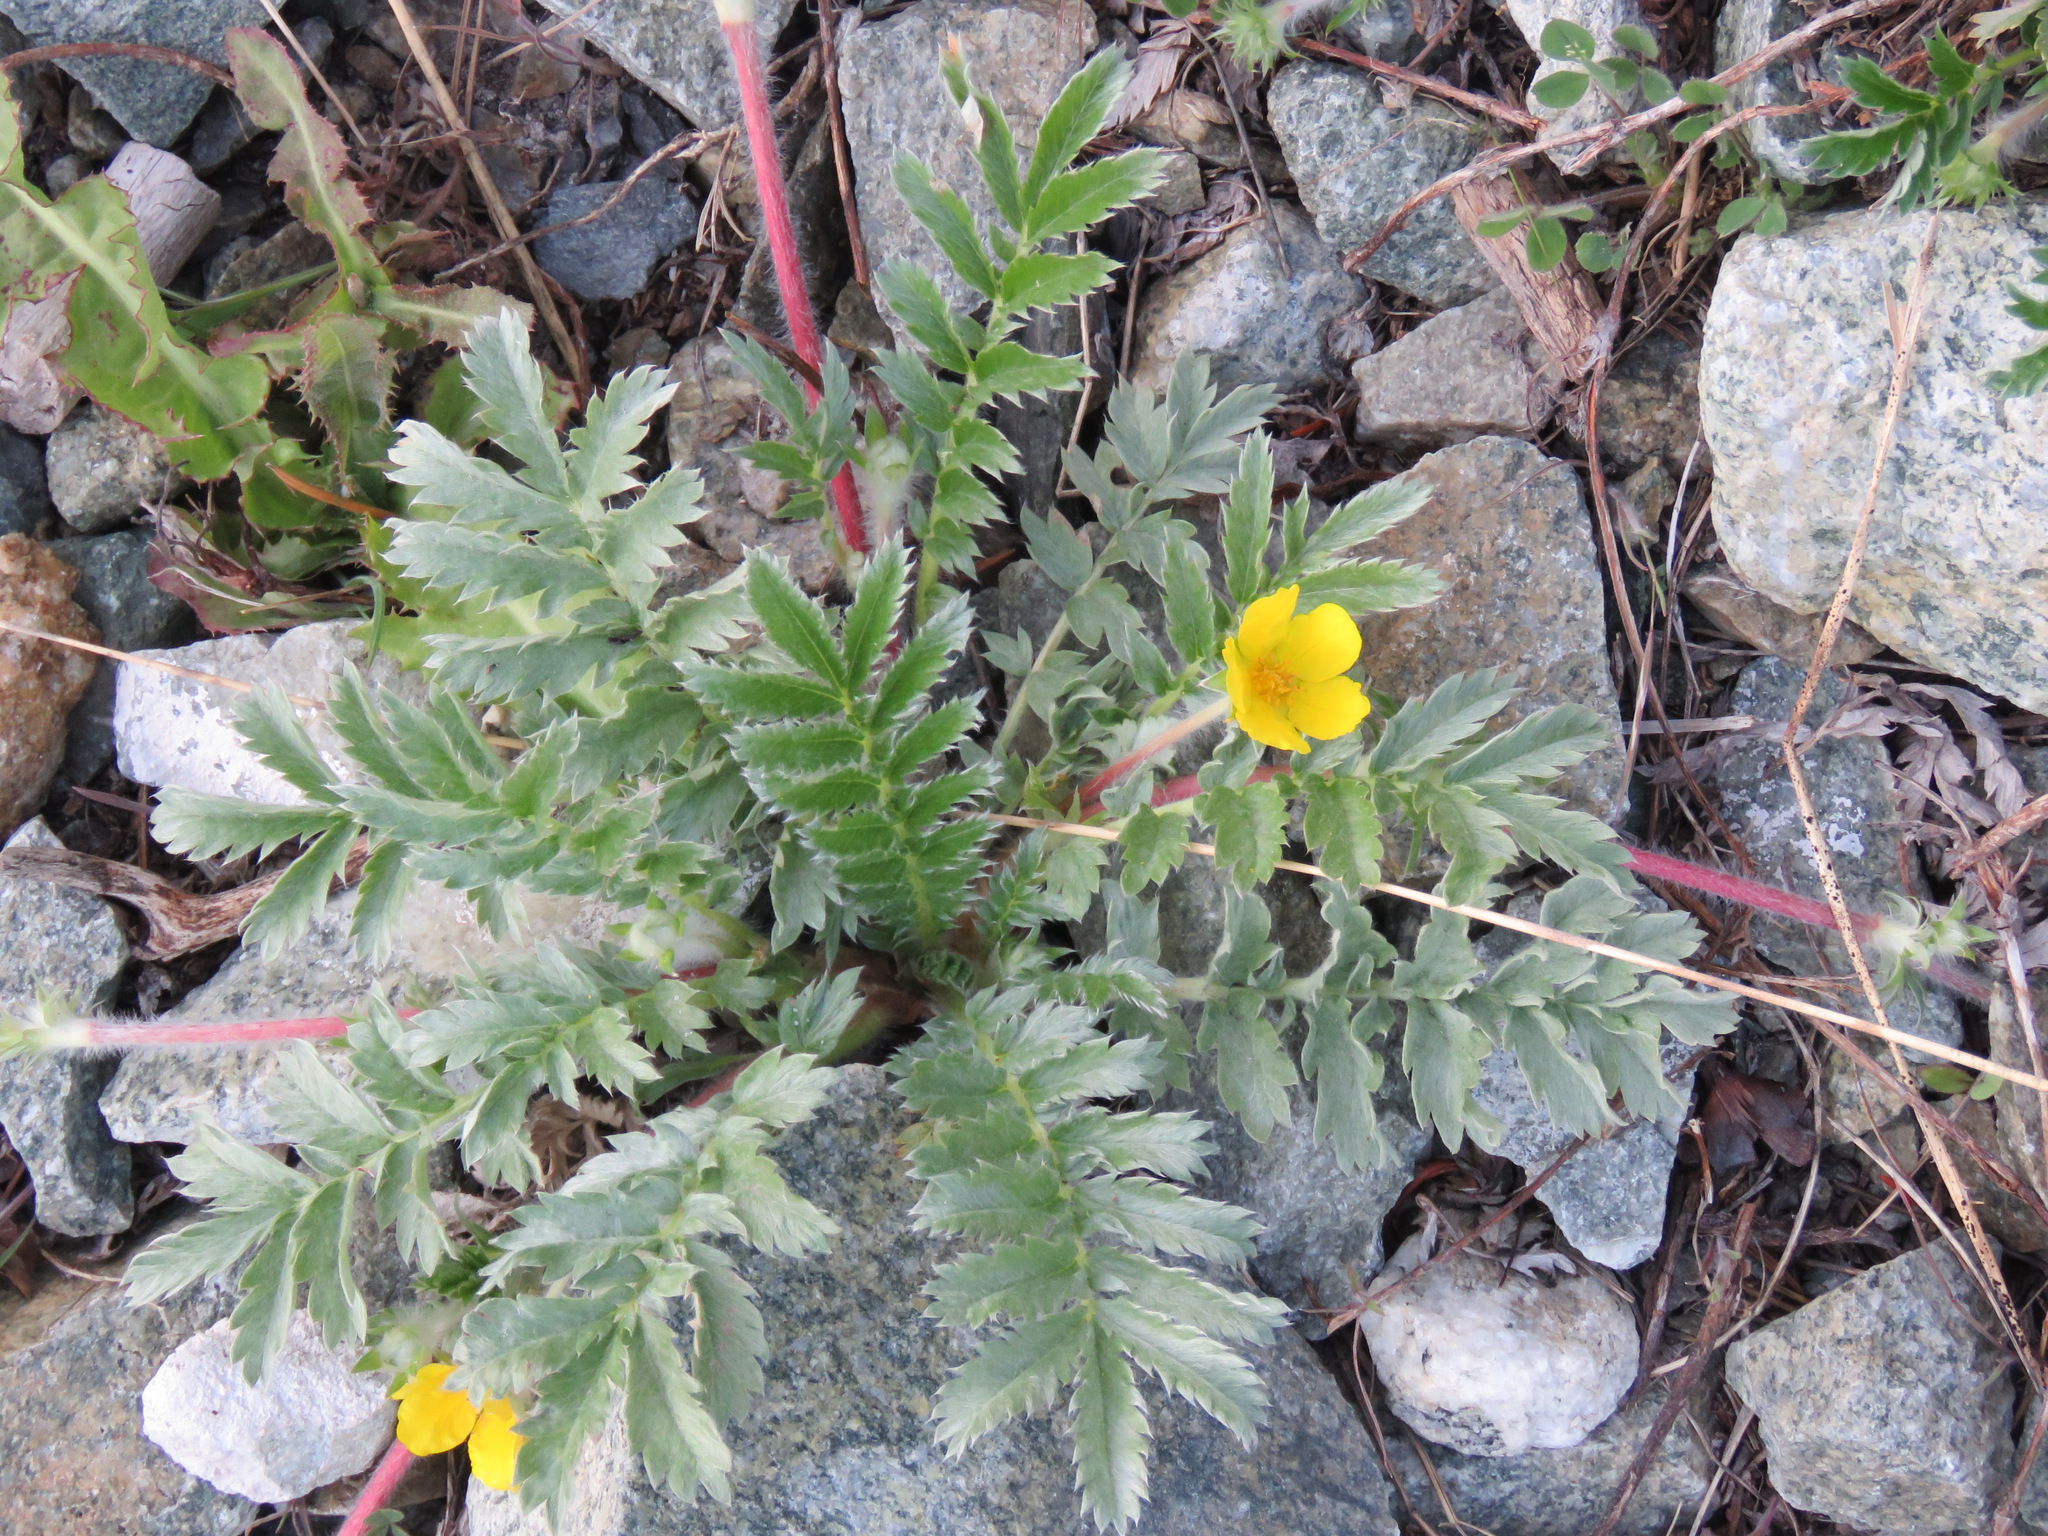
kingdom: Plantae
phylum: Tracheophyta
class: Magnoliopsida
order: Rosales
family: Rosaceae
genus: Argentina
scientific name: Argentina anserina
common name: Common silverweed
